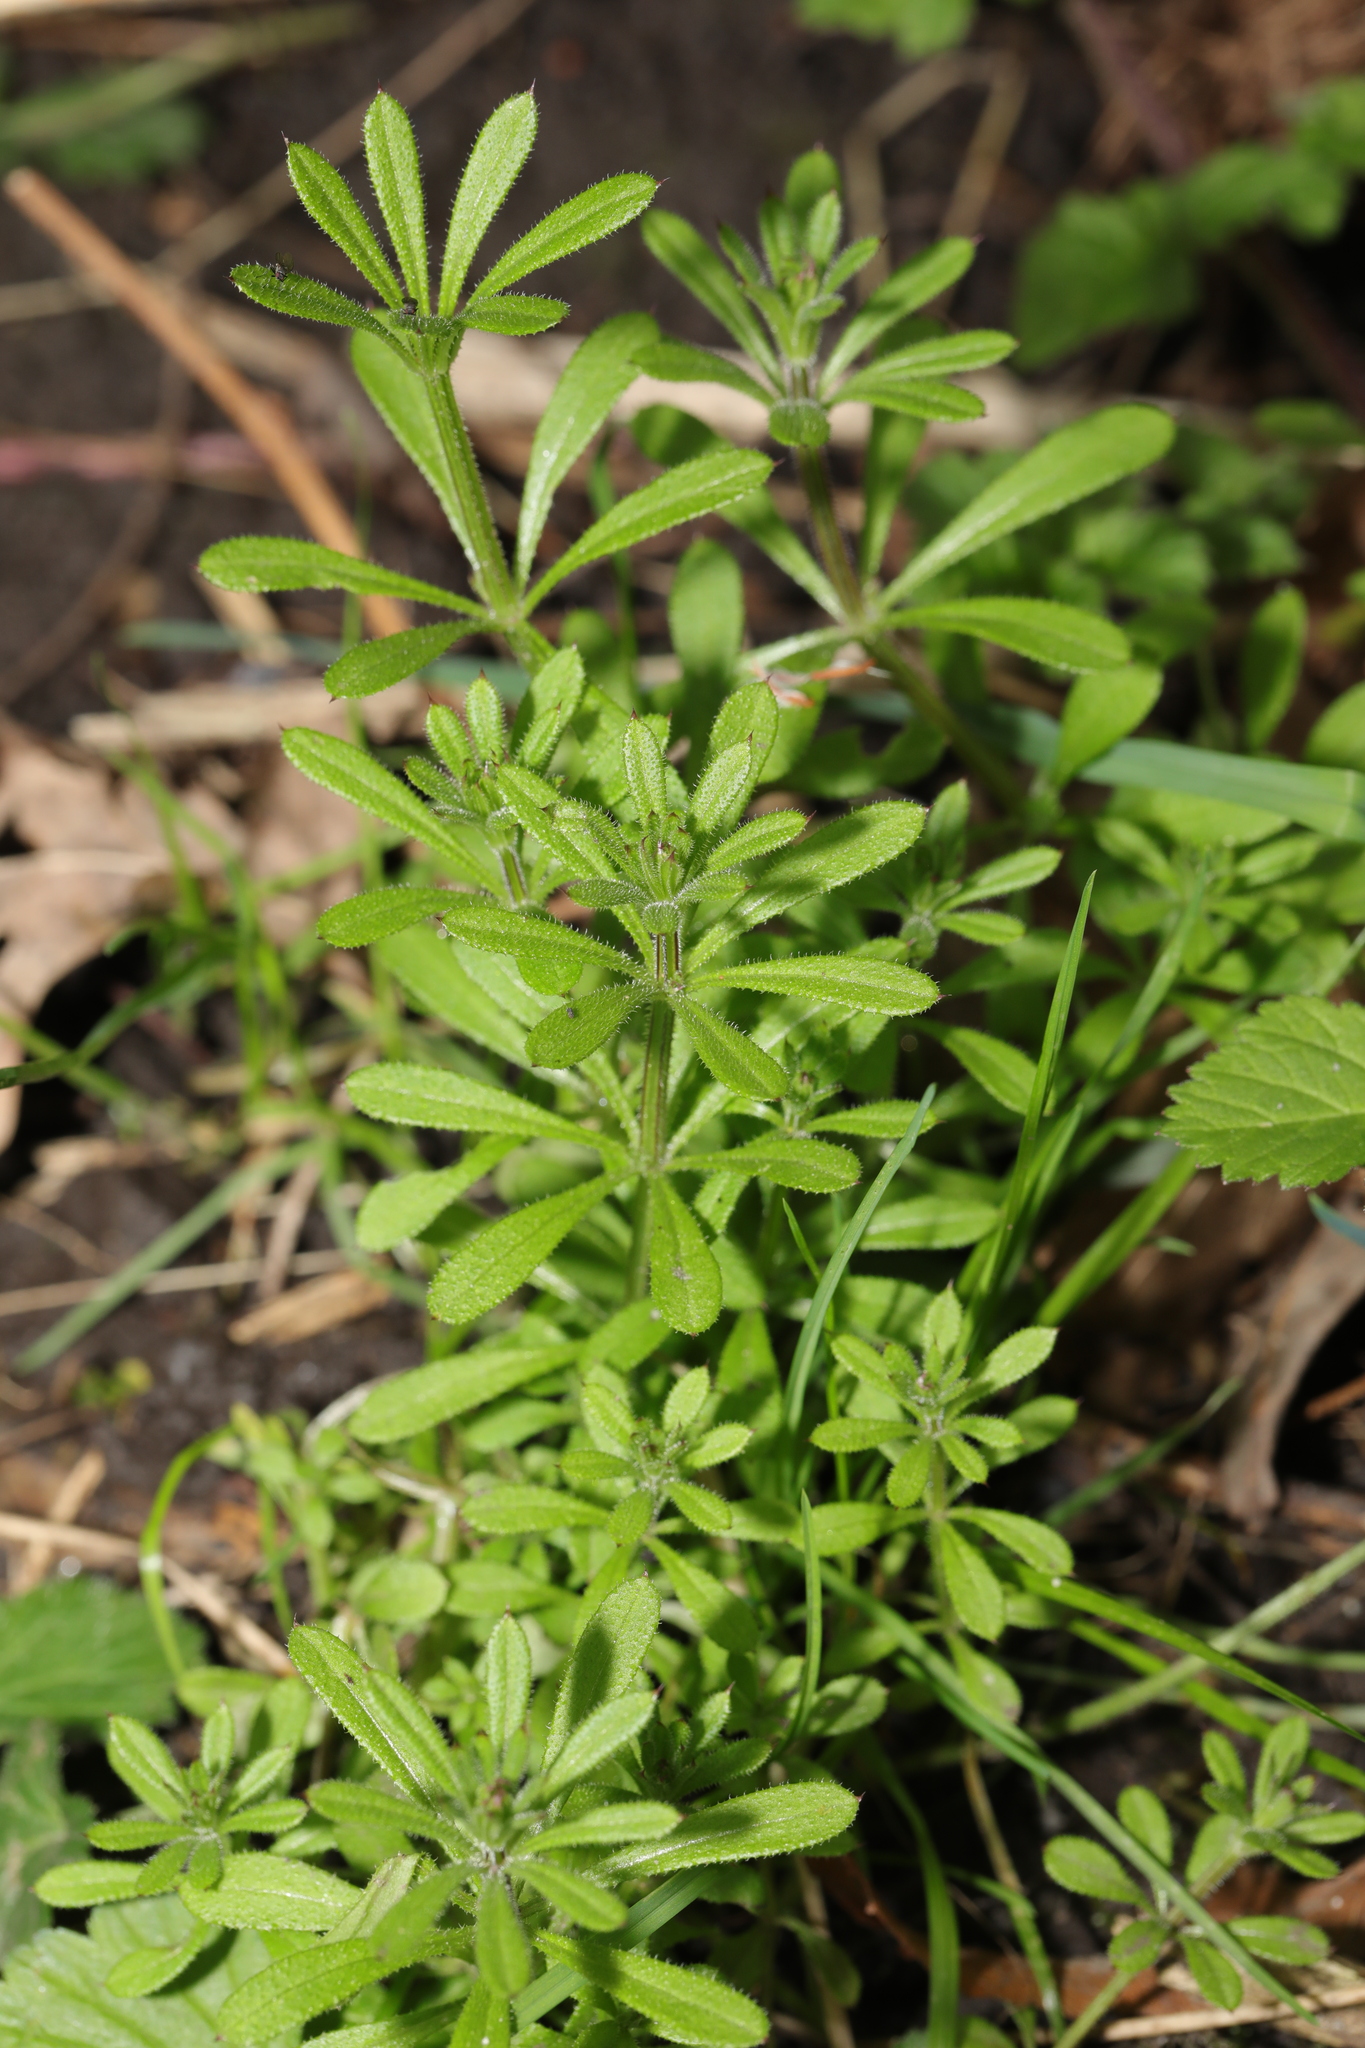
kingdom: Plantae
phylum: Tracheophyta
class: Magnoliopsida
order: Gentianales
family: Rubiaceae
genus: Galium
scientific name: Galium aparine
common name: Cleavers
